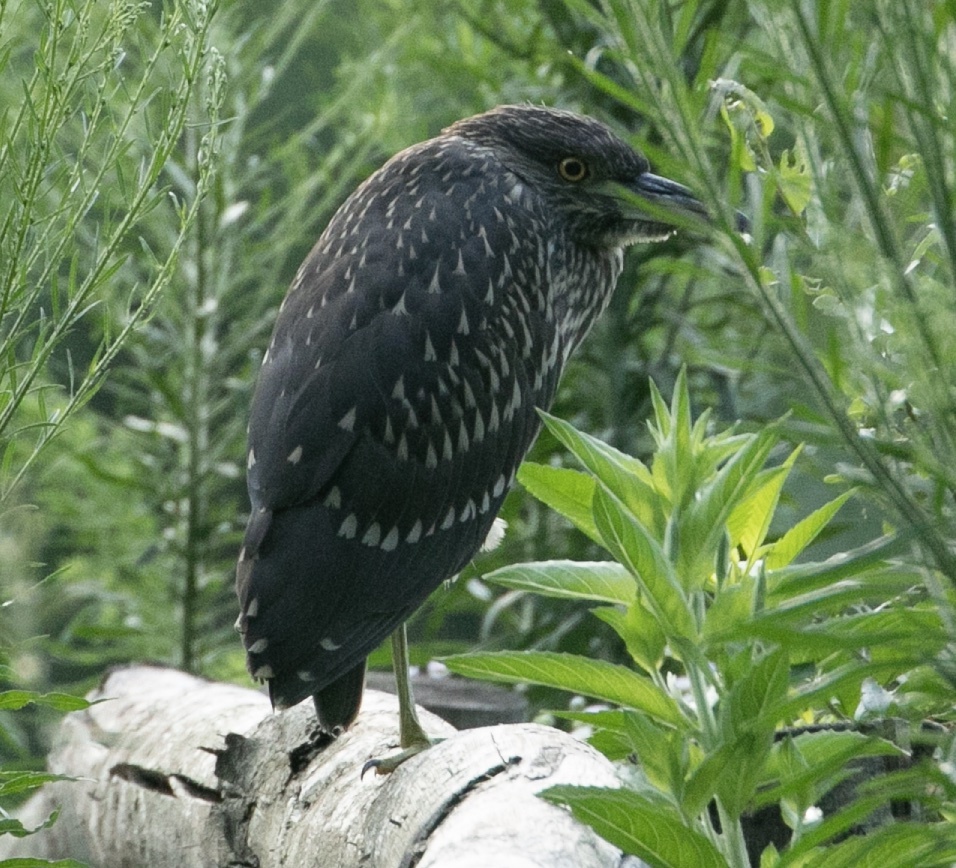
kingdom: Animalia
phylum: Chordata
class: Aves
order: Pelecaniformes
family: Ardeidae
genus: Nycticorax
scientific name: Nycticorax nycticorax
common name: Black-crowned night heron
